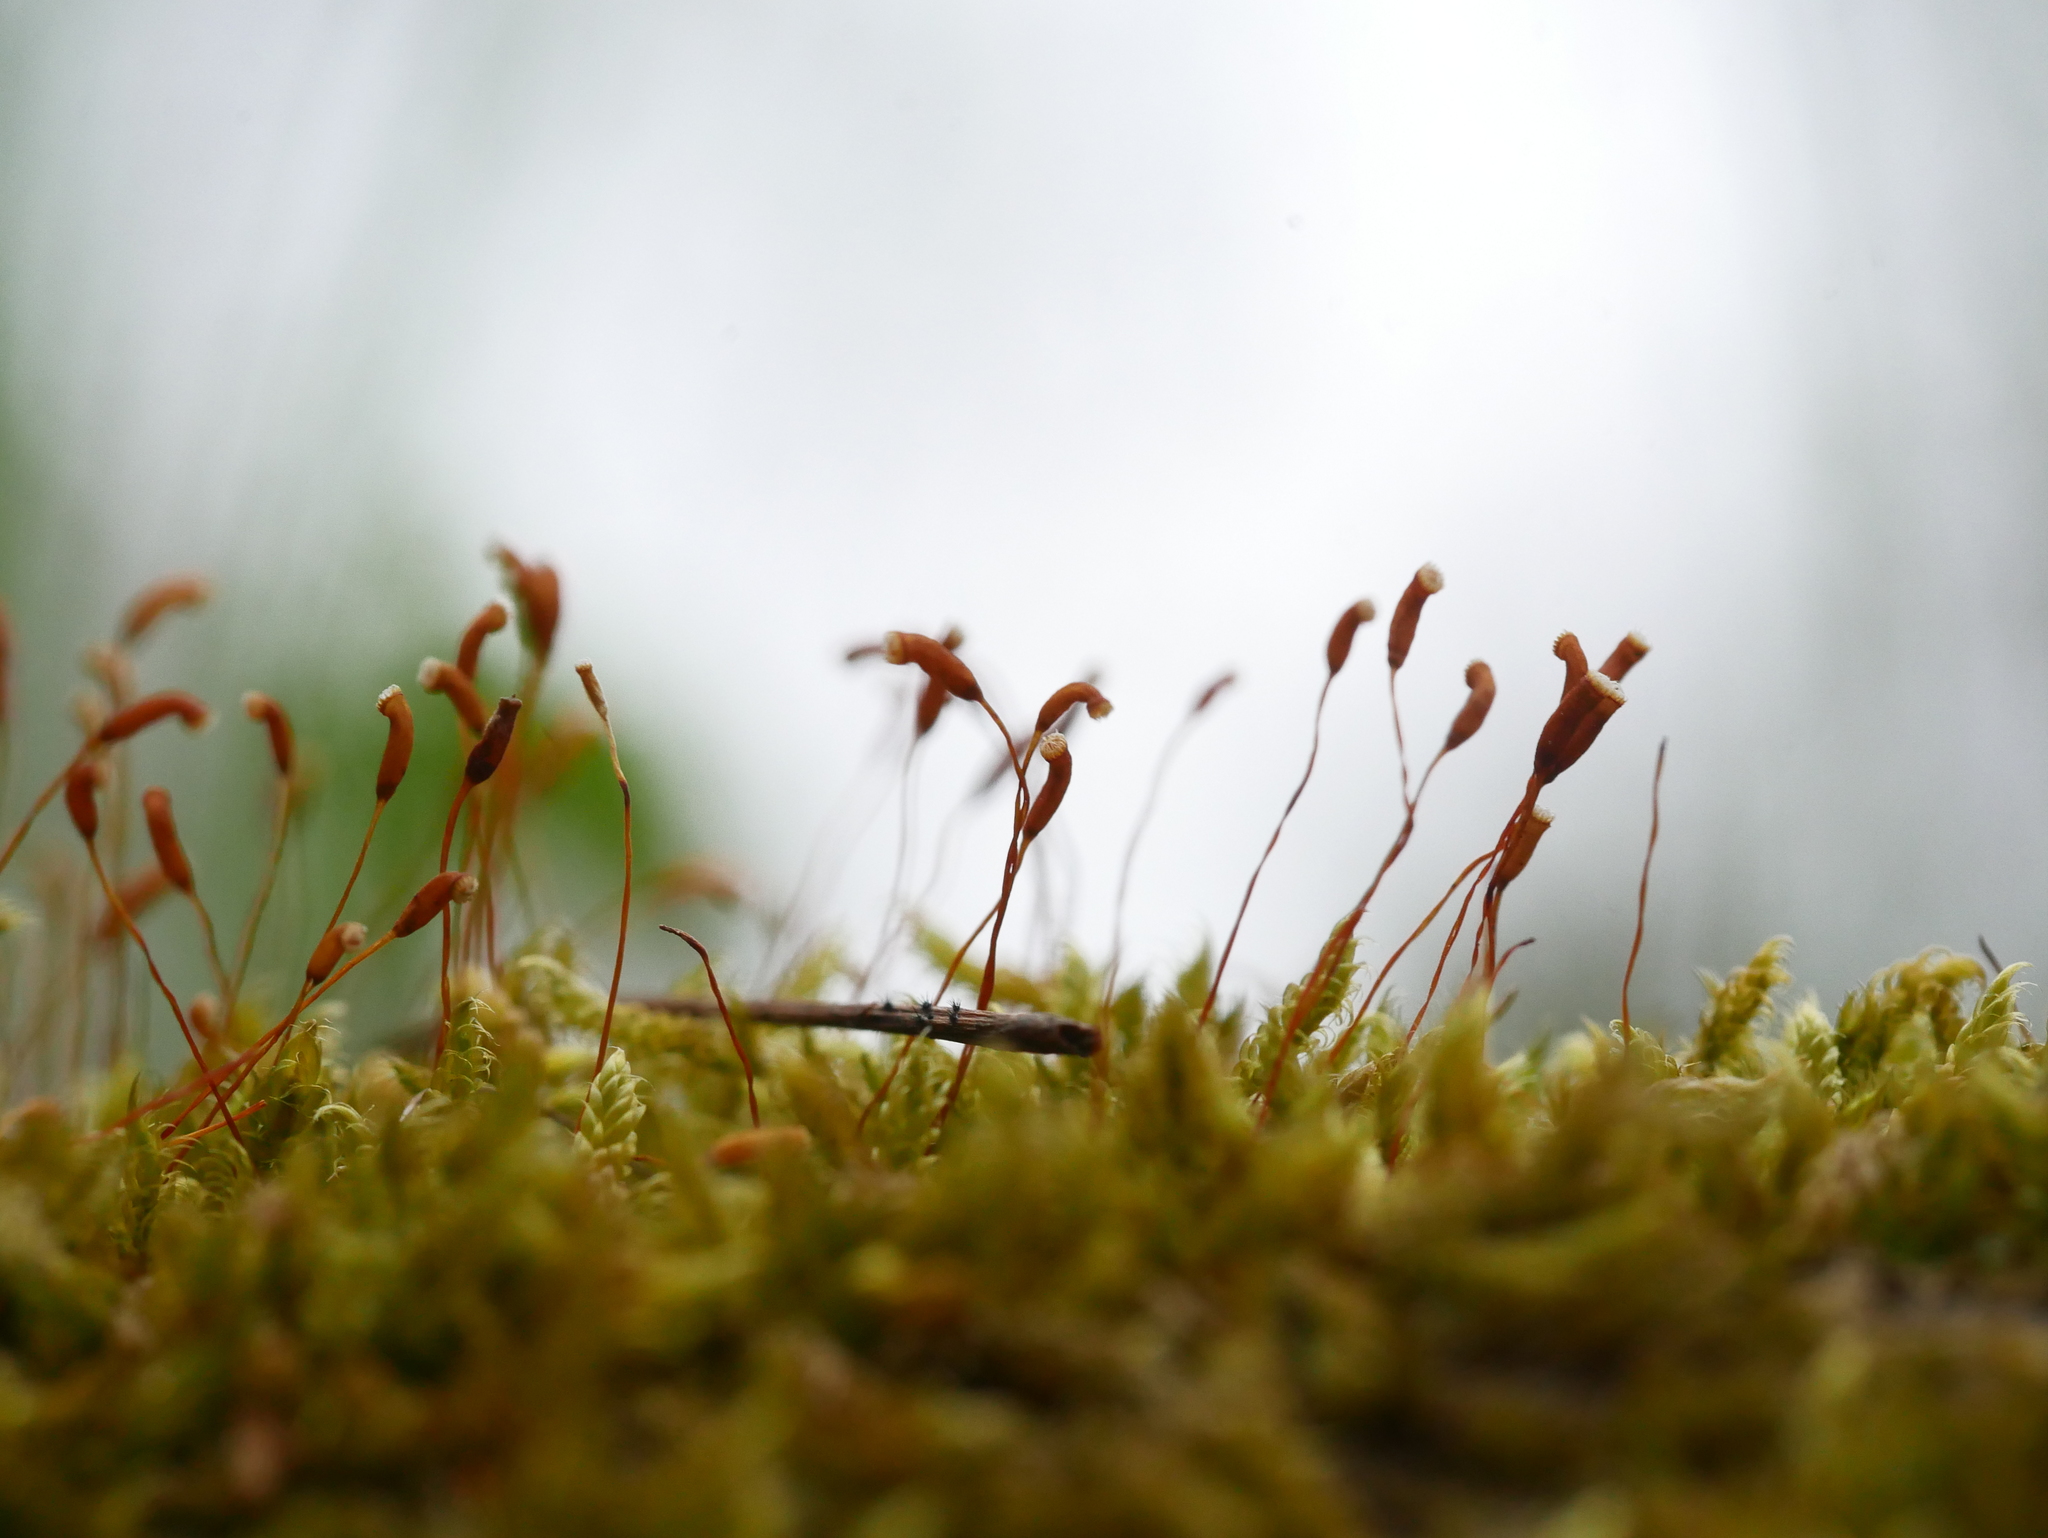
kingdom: Plantae
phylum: Bryophyta
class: Bryopsida
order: Hypnales
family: Hypnaceae
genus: Hypnum
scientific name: Hypnum cupressiforme
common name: Cypress-leaved plait-moss
